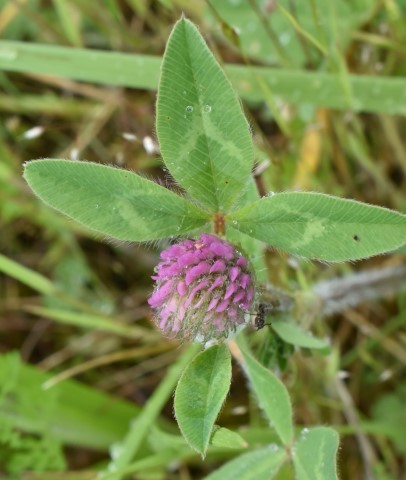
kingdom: Plantae
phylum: Tracheophyta
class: Magnoliopsida
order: Fabales
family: Fabaceae
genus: Trifolium
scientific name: Trifolium pratense
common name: Red clover
